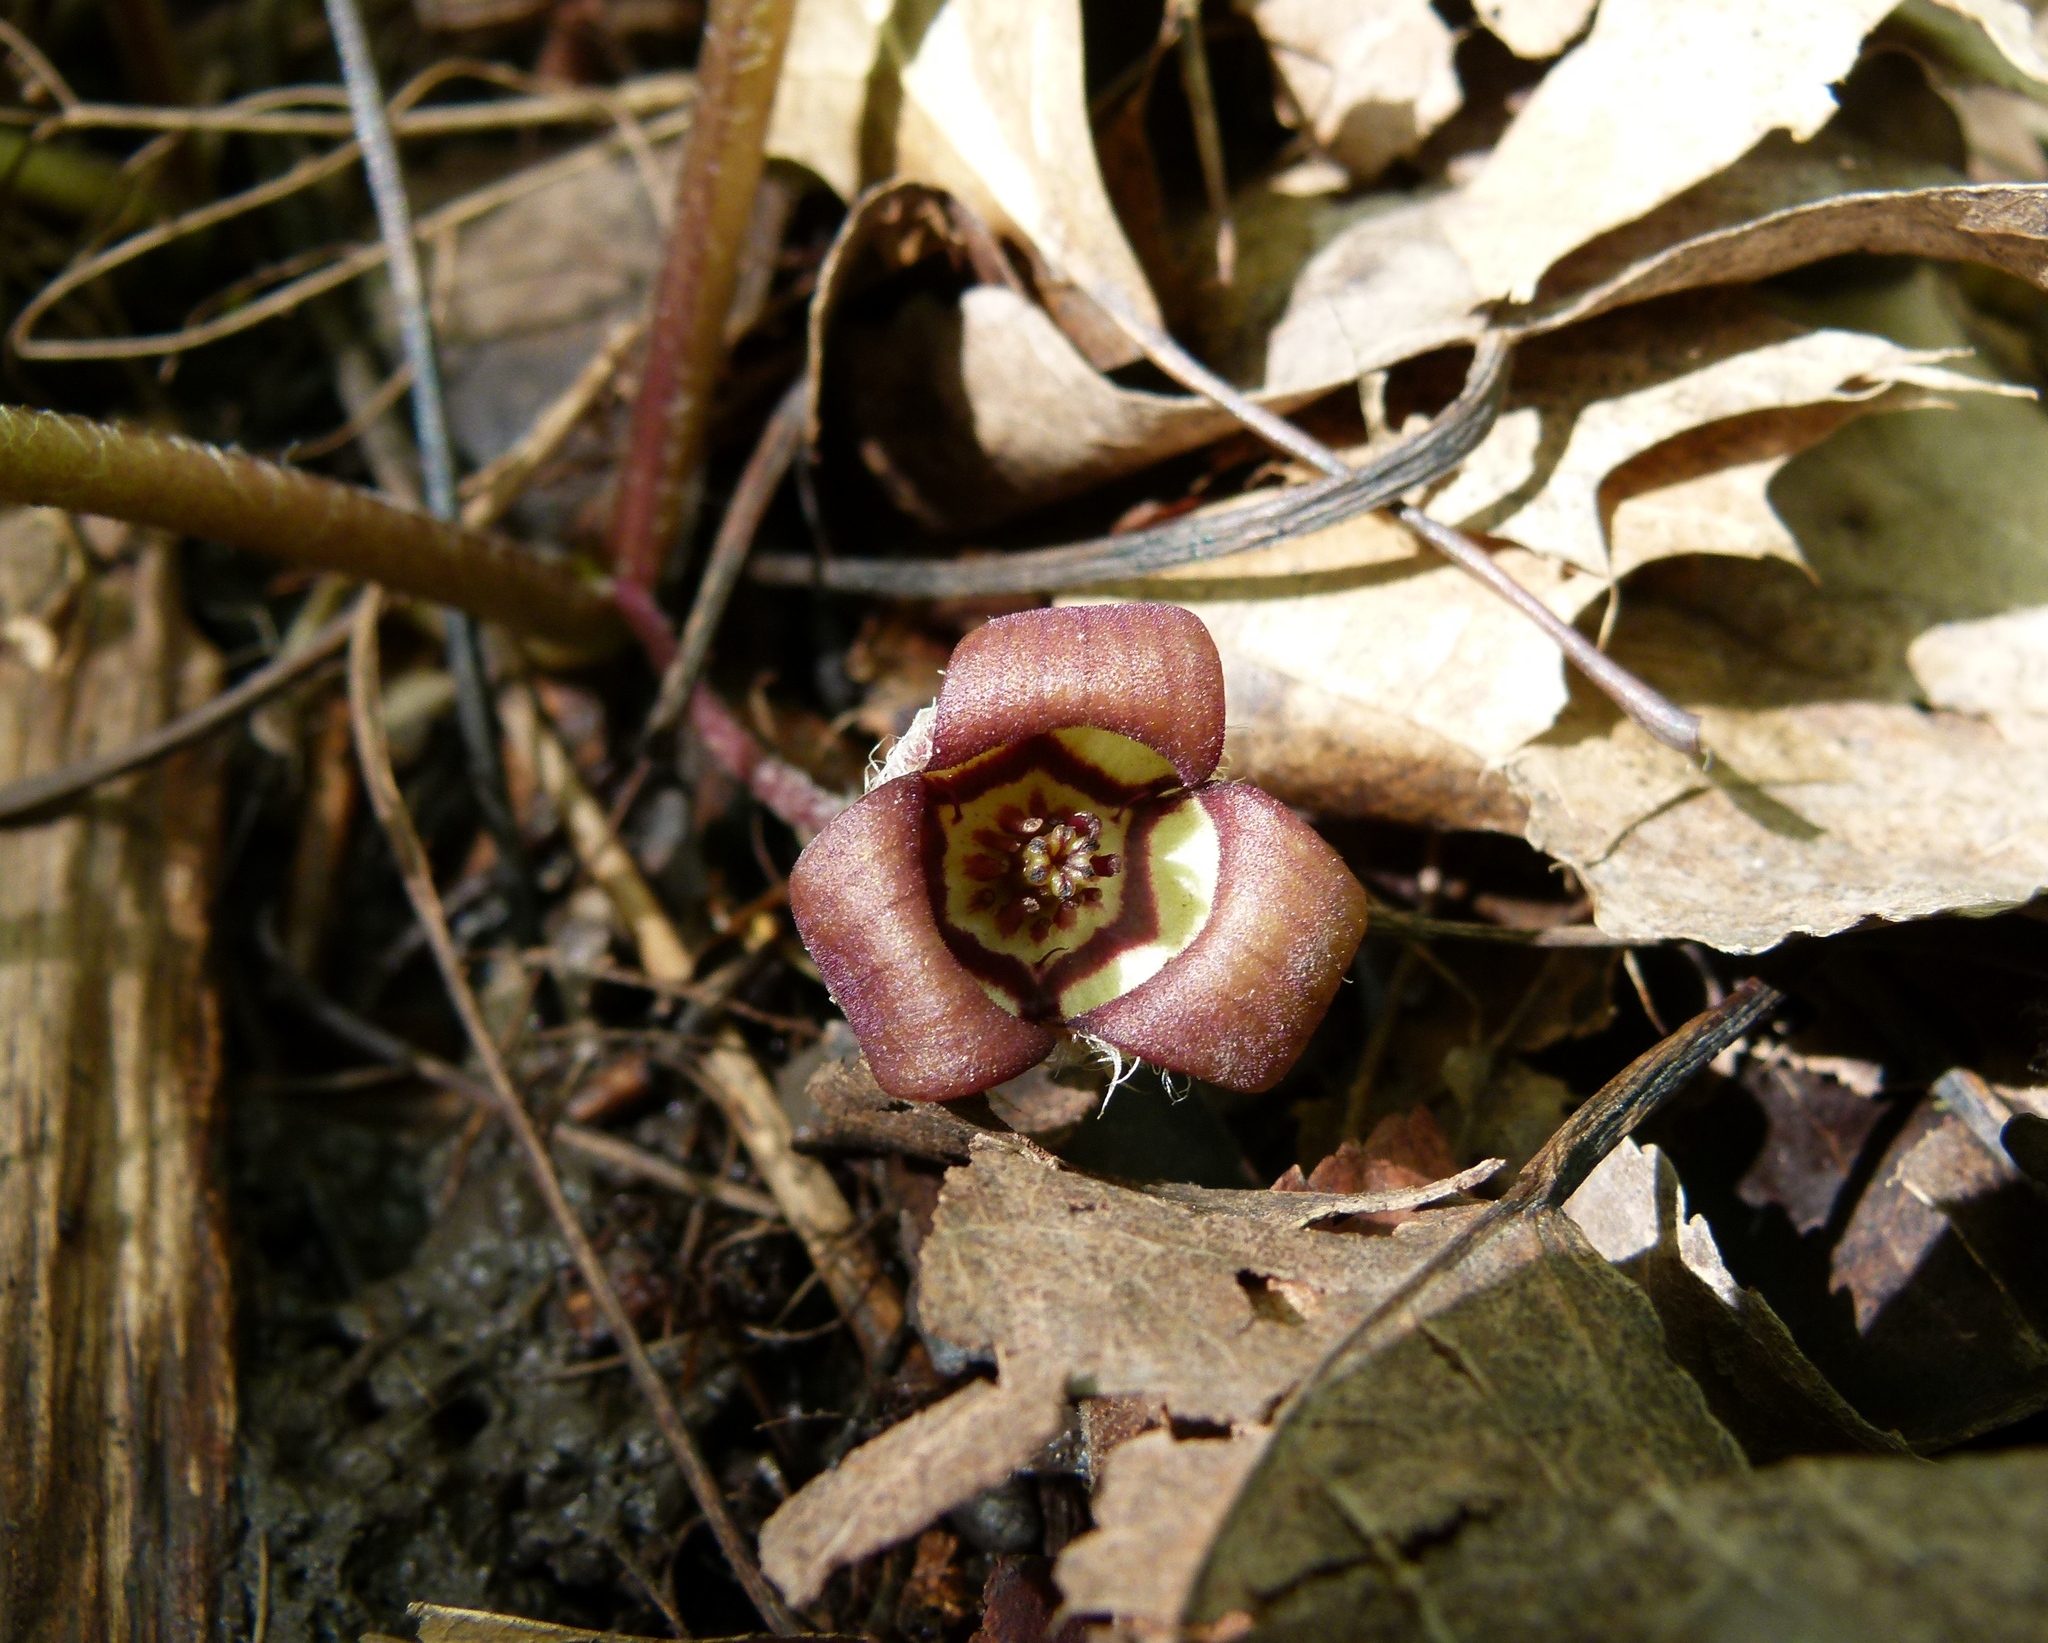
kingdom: Plantae
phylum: Tracheophyta
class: Magnoliopsida
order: Piperales
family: Aristolochiaceae
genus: Asarum
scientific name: Asarum canadense
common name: Wild ginger
